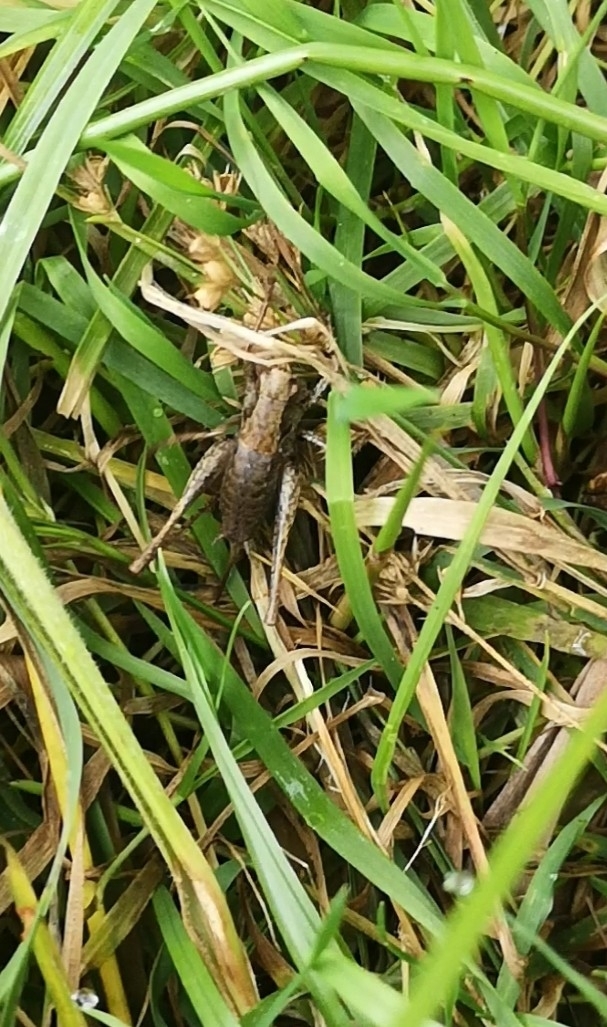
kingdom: Animalia
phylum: Arthropoda
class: Insecta
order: Orthoptera
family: Tettigoniidae
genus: Pholidoptera
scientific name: Pholidoptera griseoaptera
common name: Dark bush-cricket
